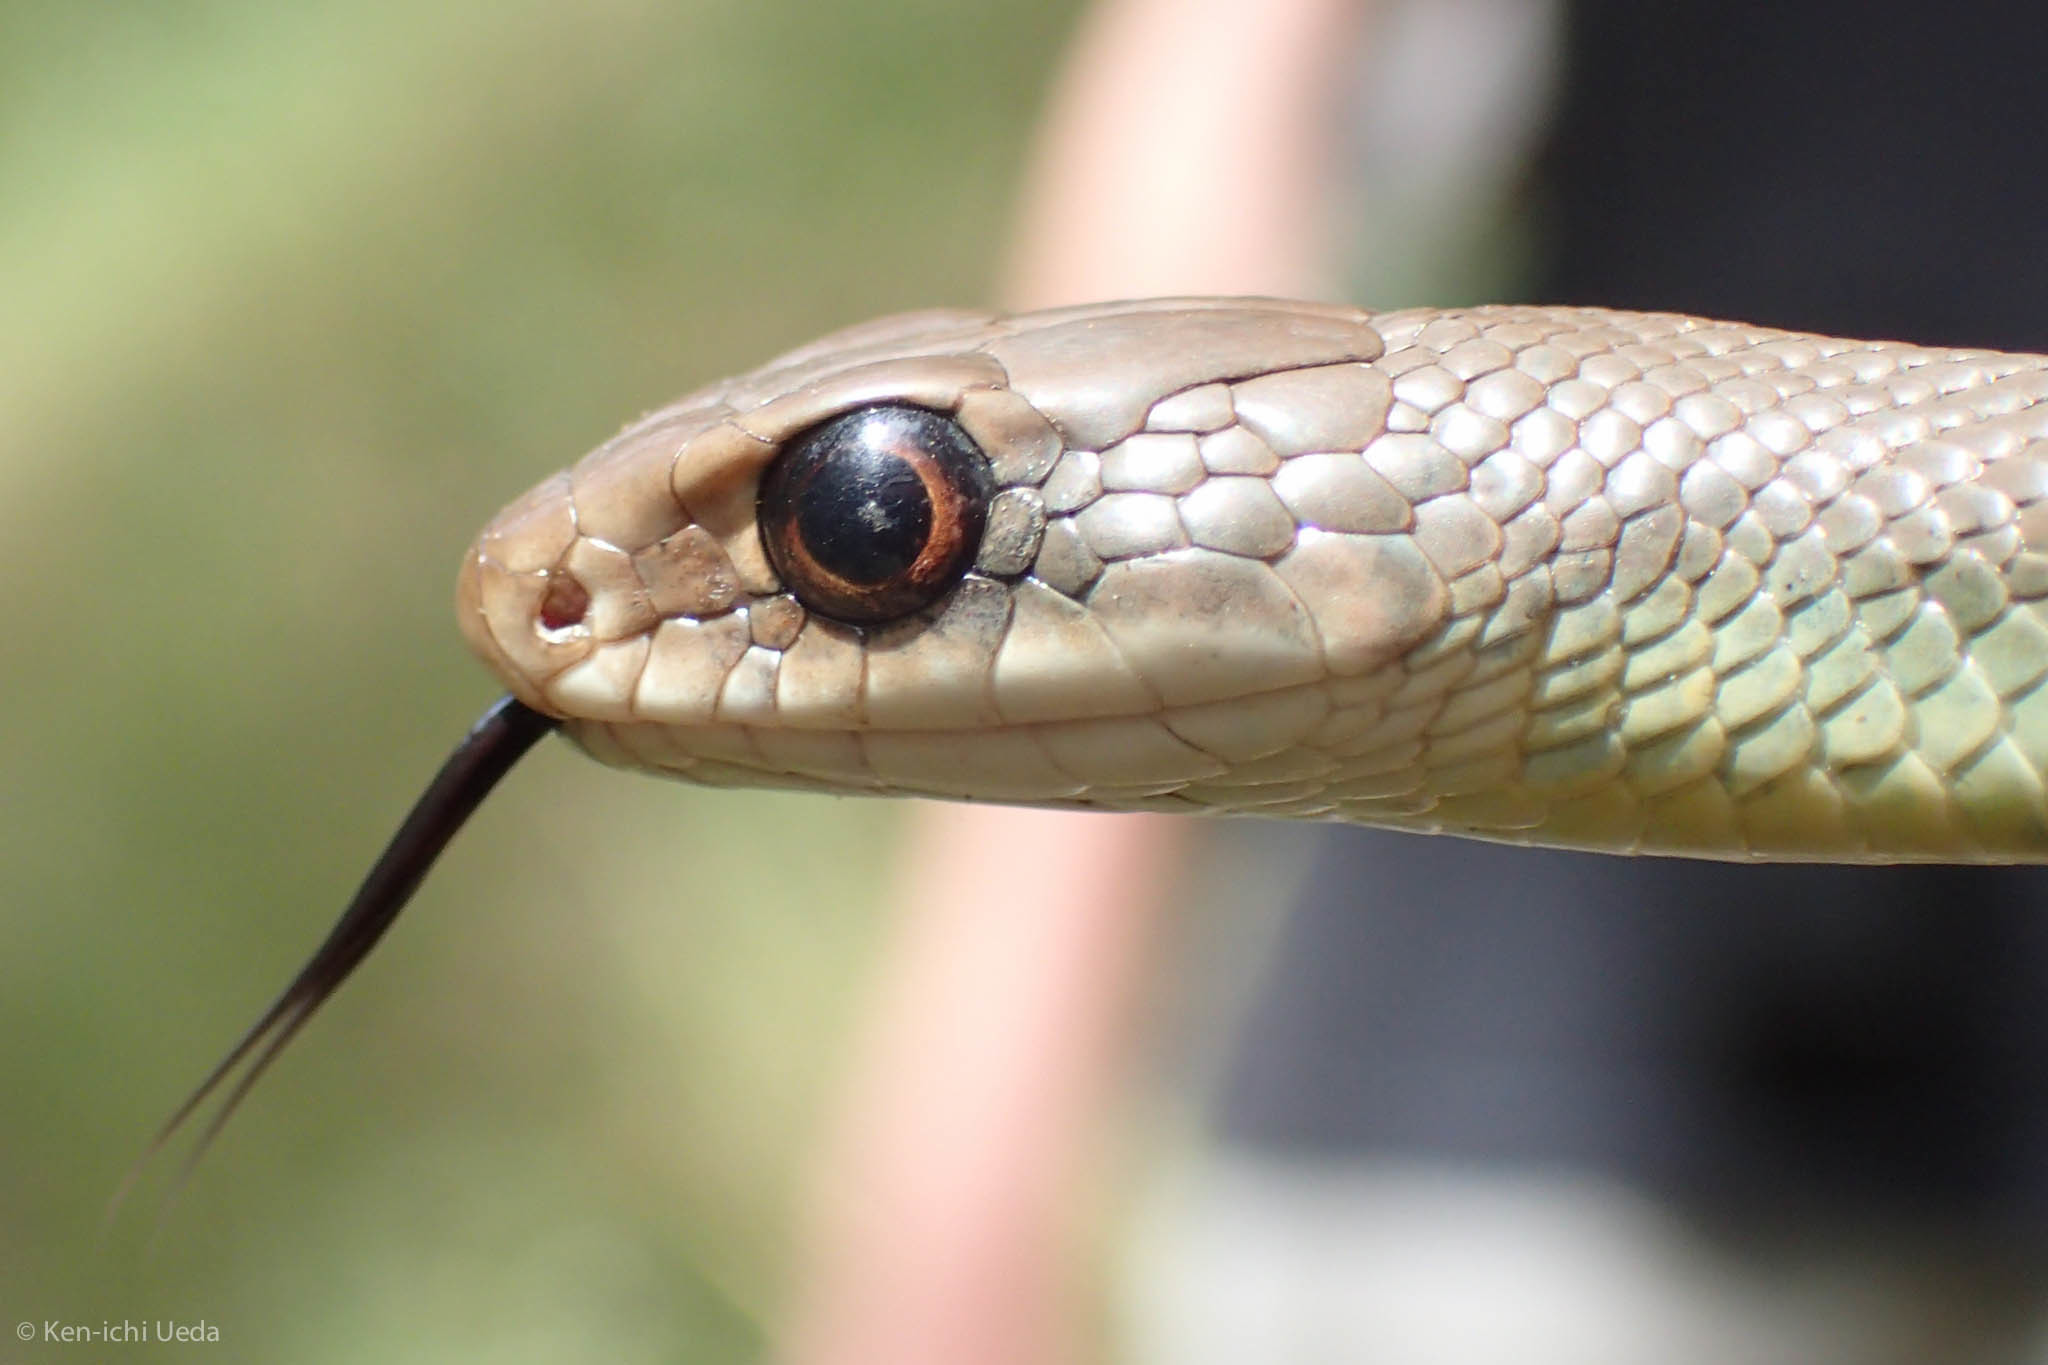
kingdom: Animalia
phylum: Chordata
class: Squamata
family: Colubridae
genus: Coluber
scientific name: Coluber constrictor
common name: Eastern racer
